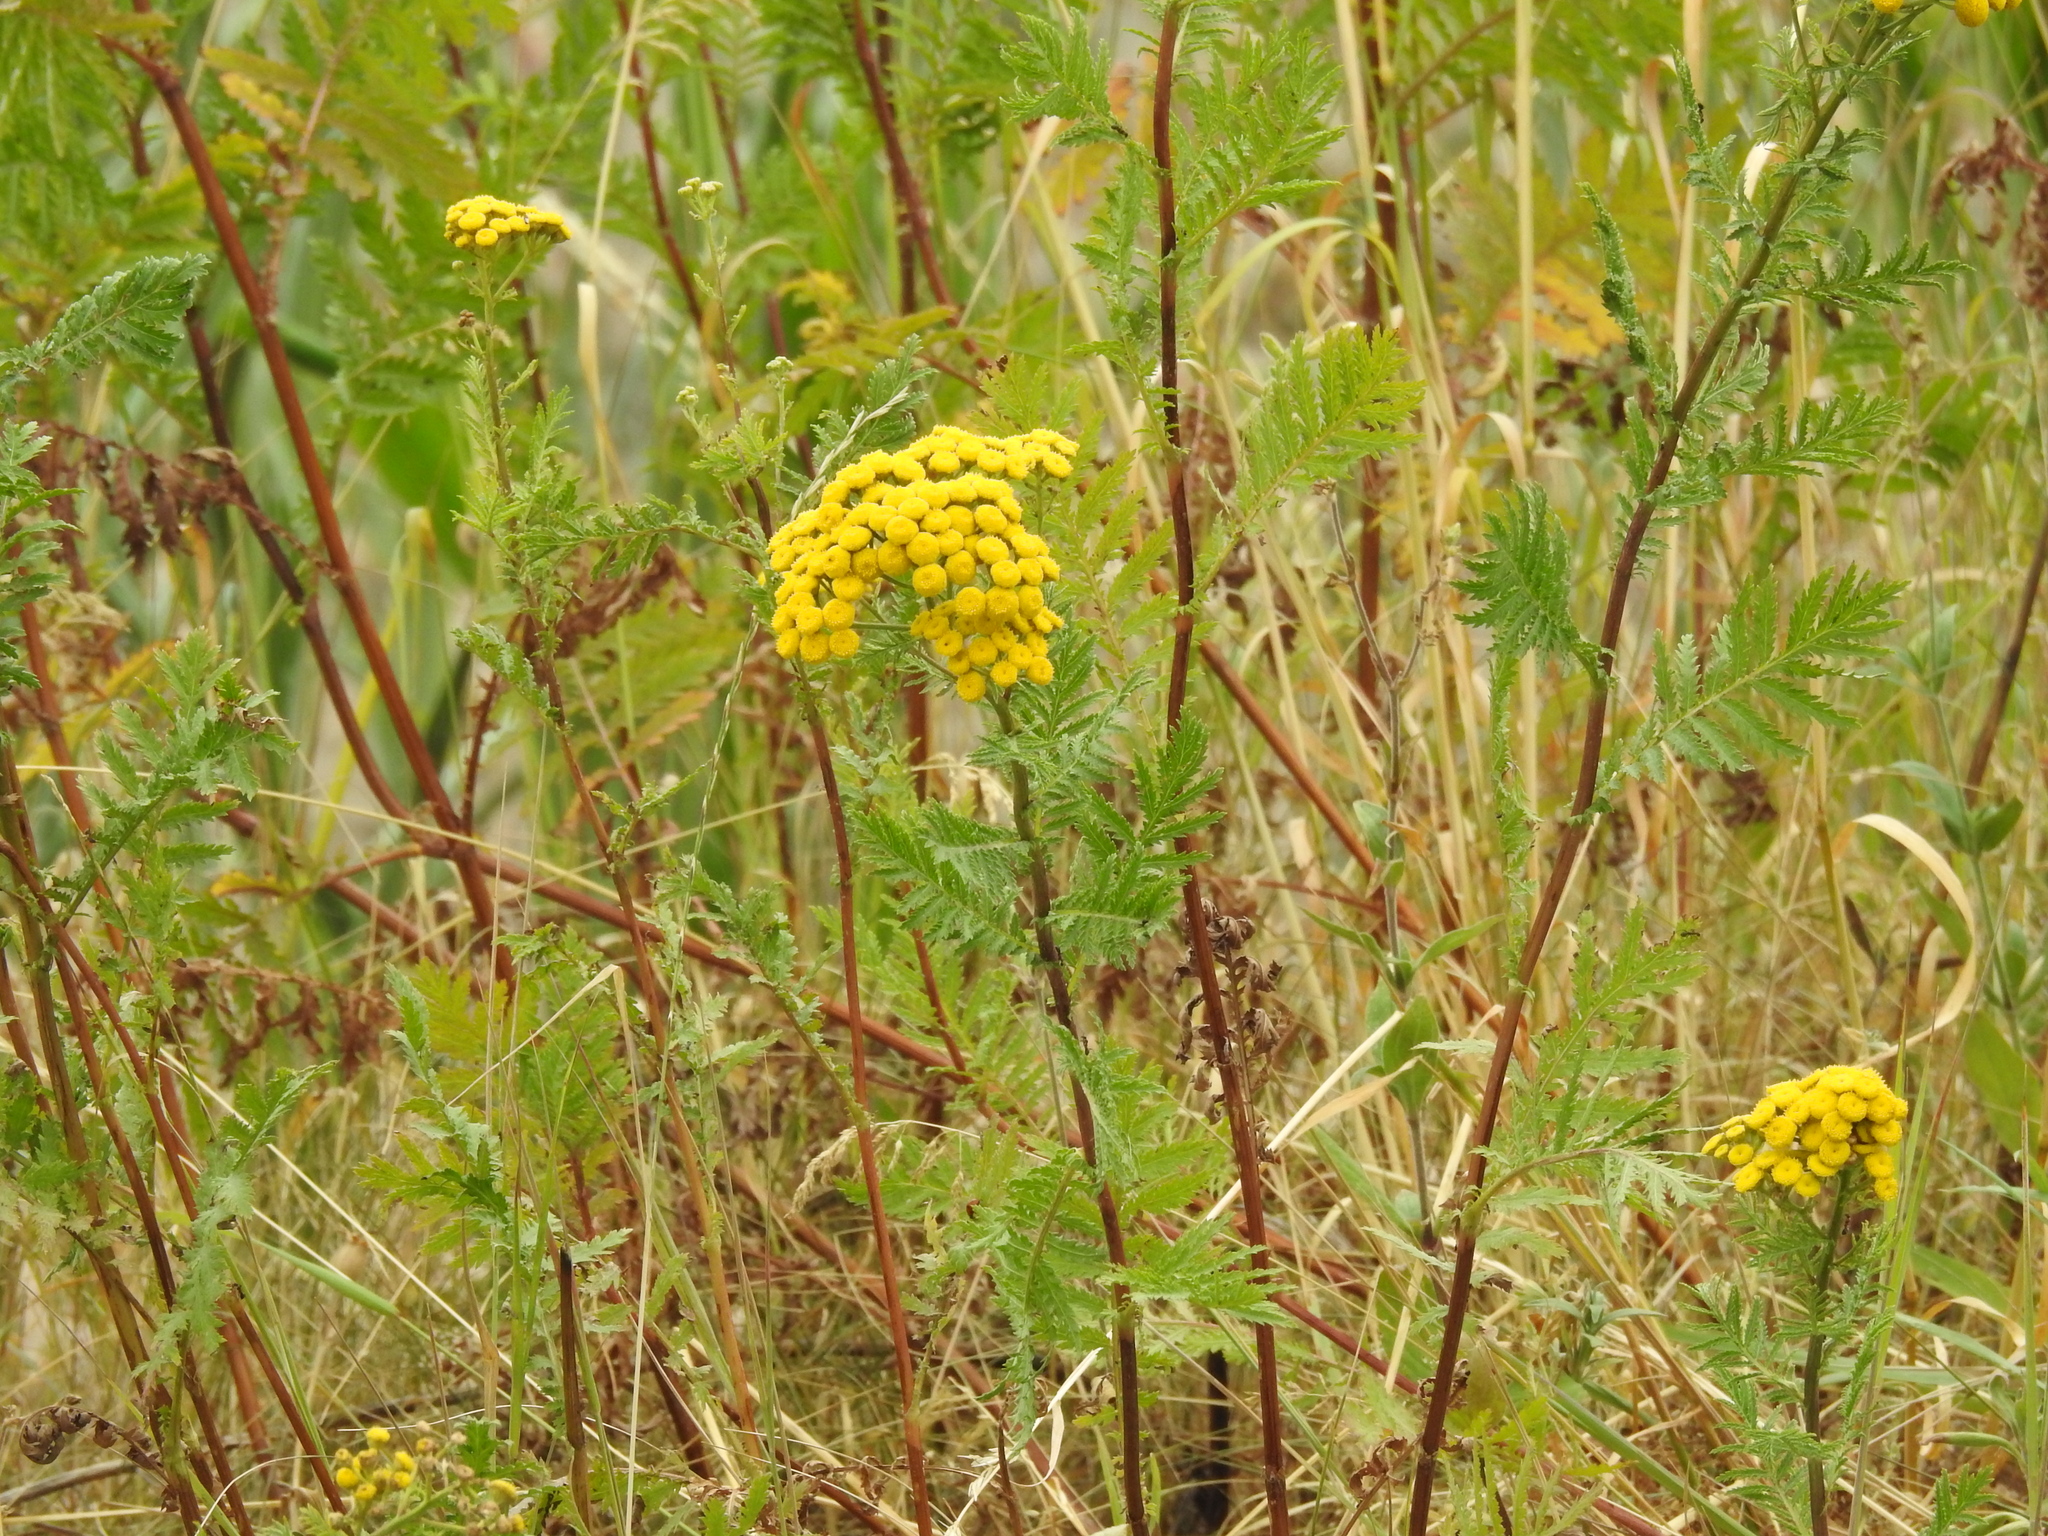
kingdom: Plantae
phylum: Tracheophyta
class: Magnoliopsida
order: Asterales
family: Asteraceae
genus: Tanacetum
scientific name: Tanacetum vulgare
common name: Common tansy
